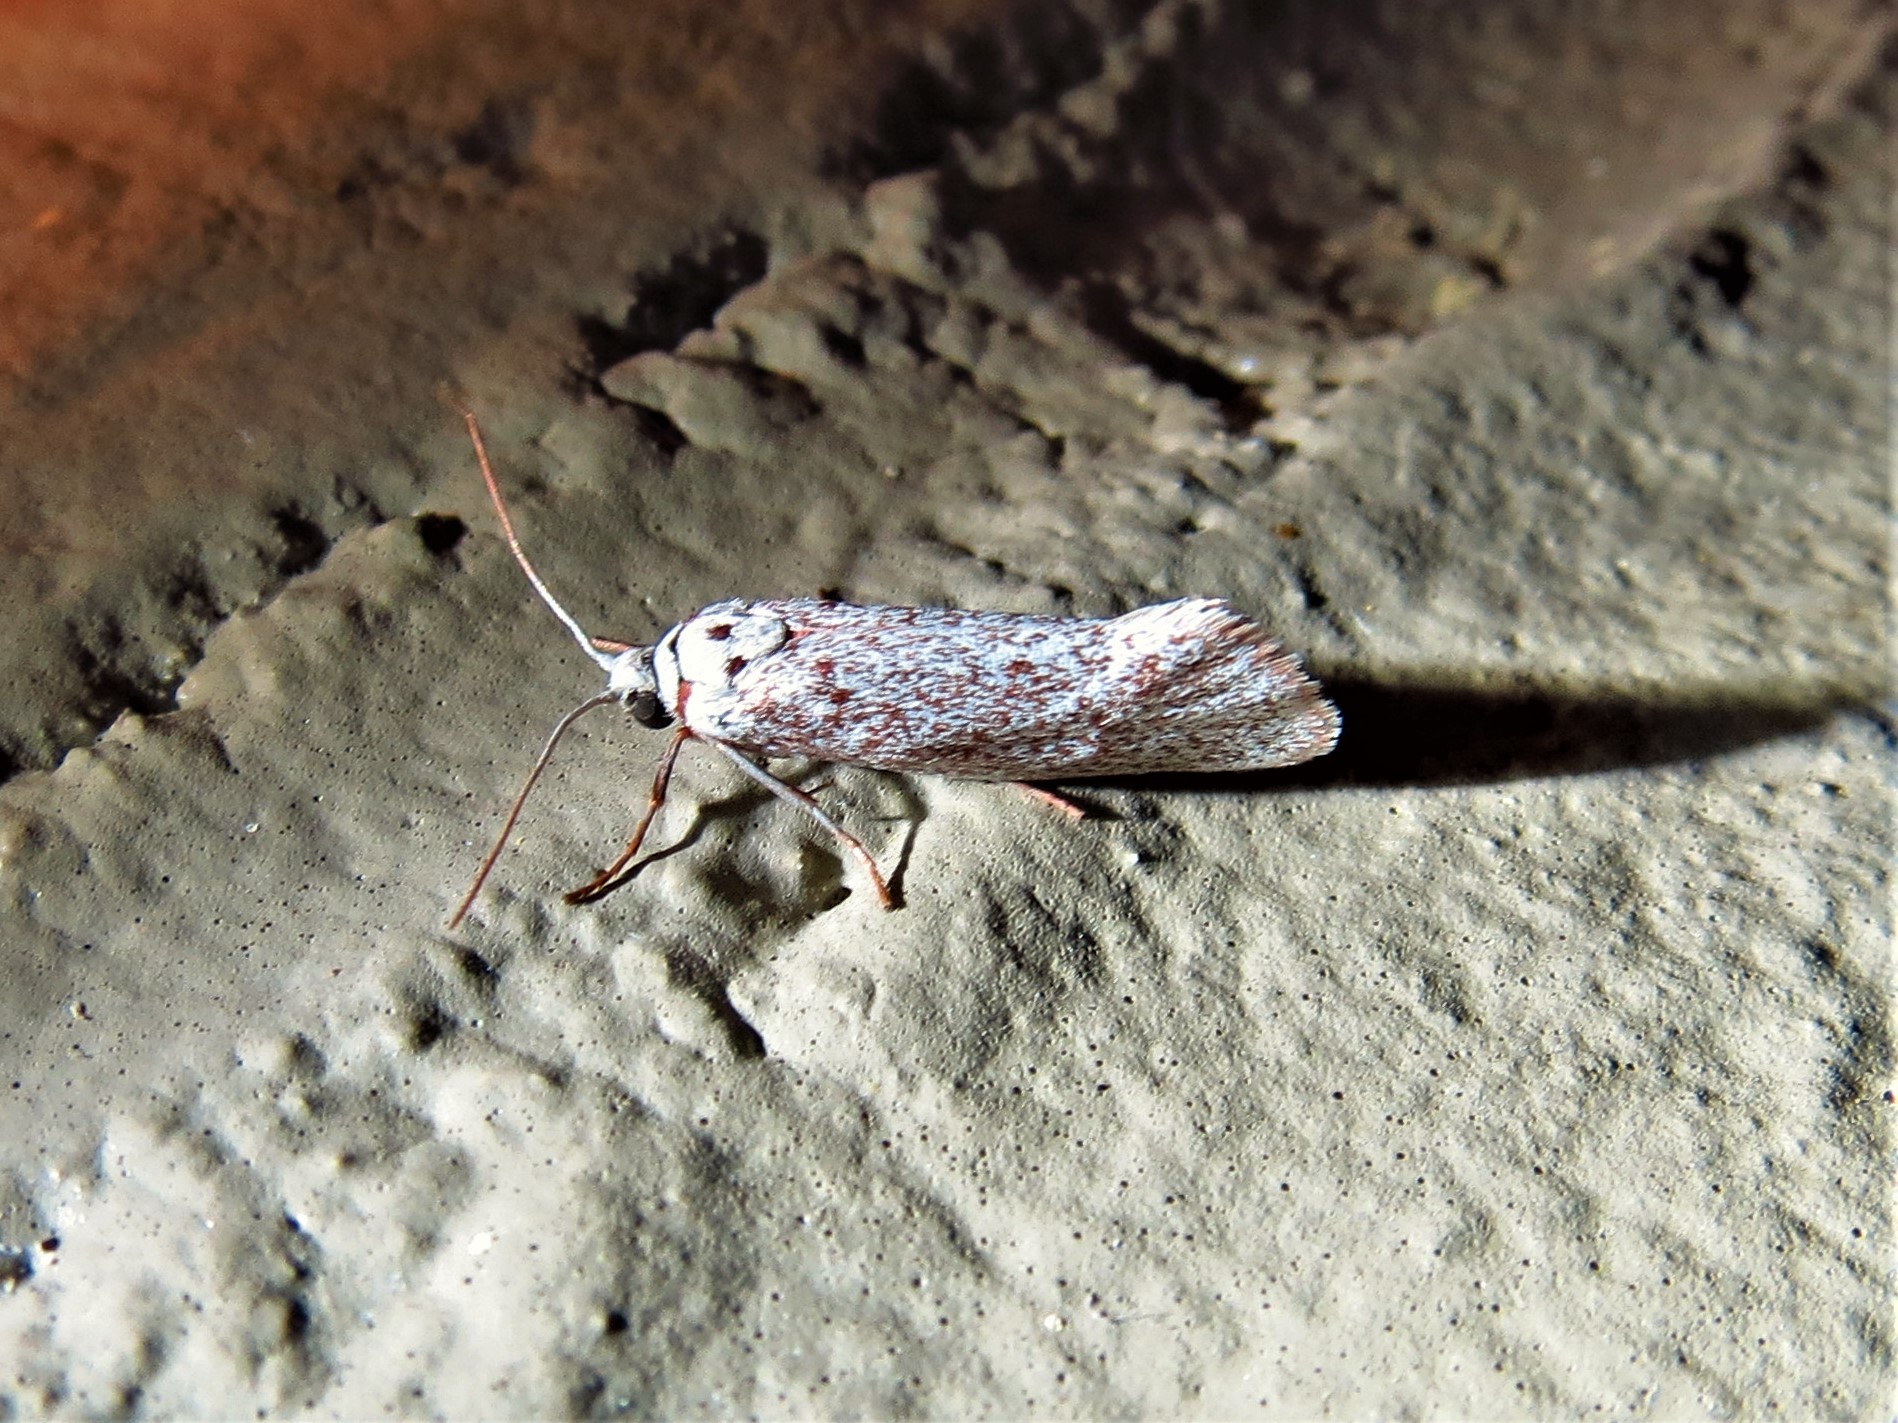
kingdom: Animalia
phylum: Arthropoda
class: Insecta
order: Lepidoptera
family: Lacturidae
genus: Lactura
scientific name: Lactura
